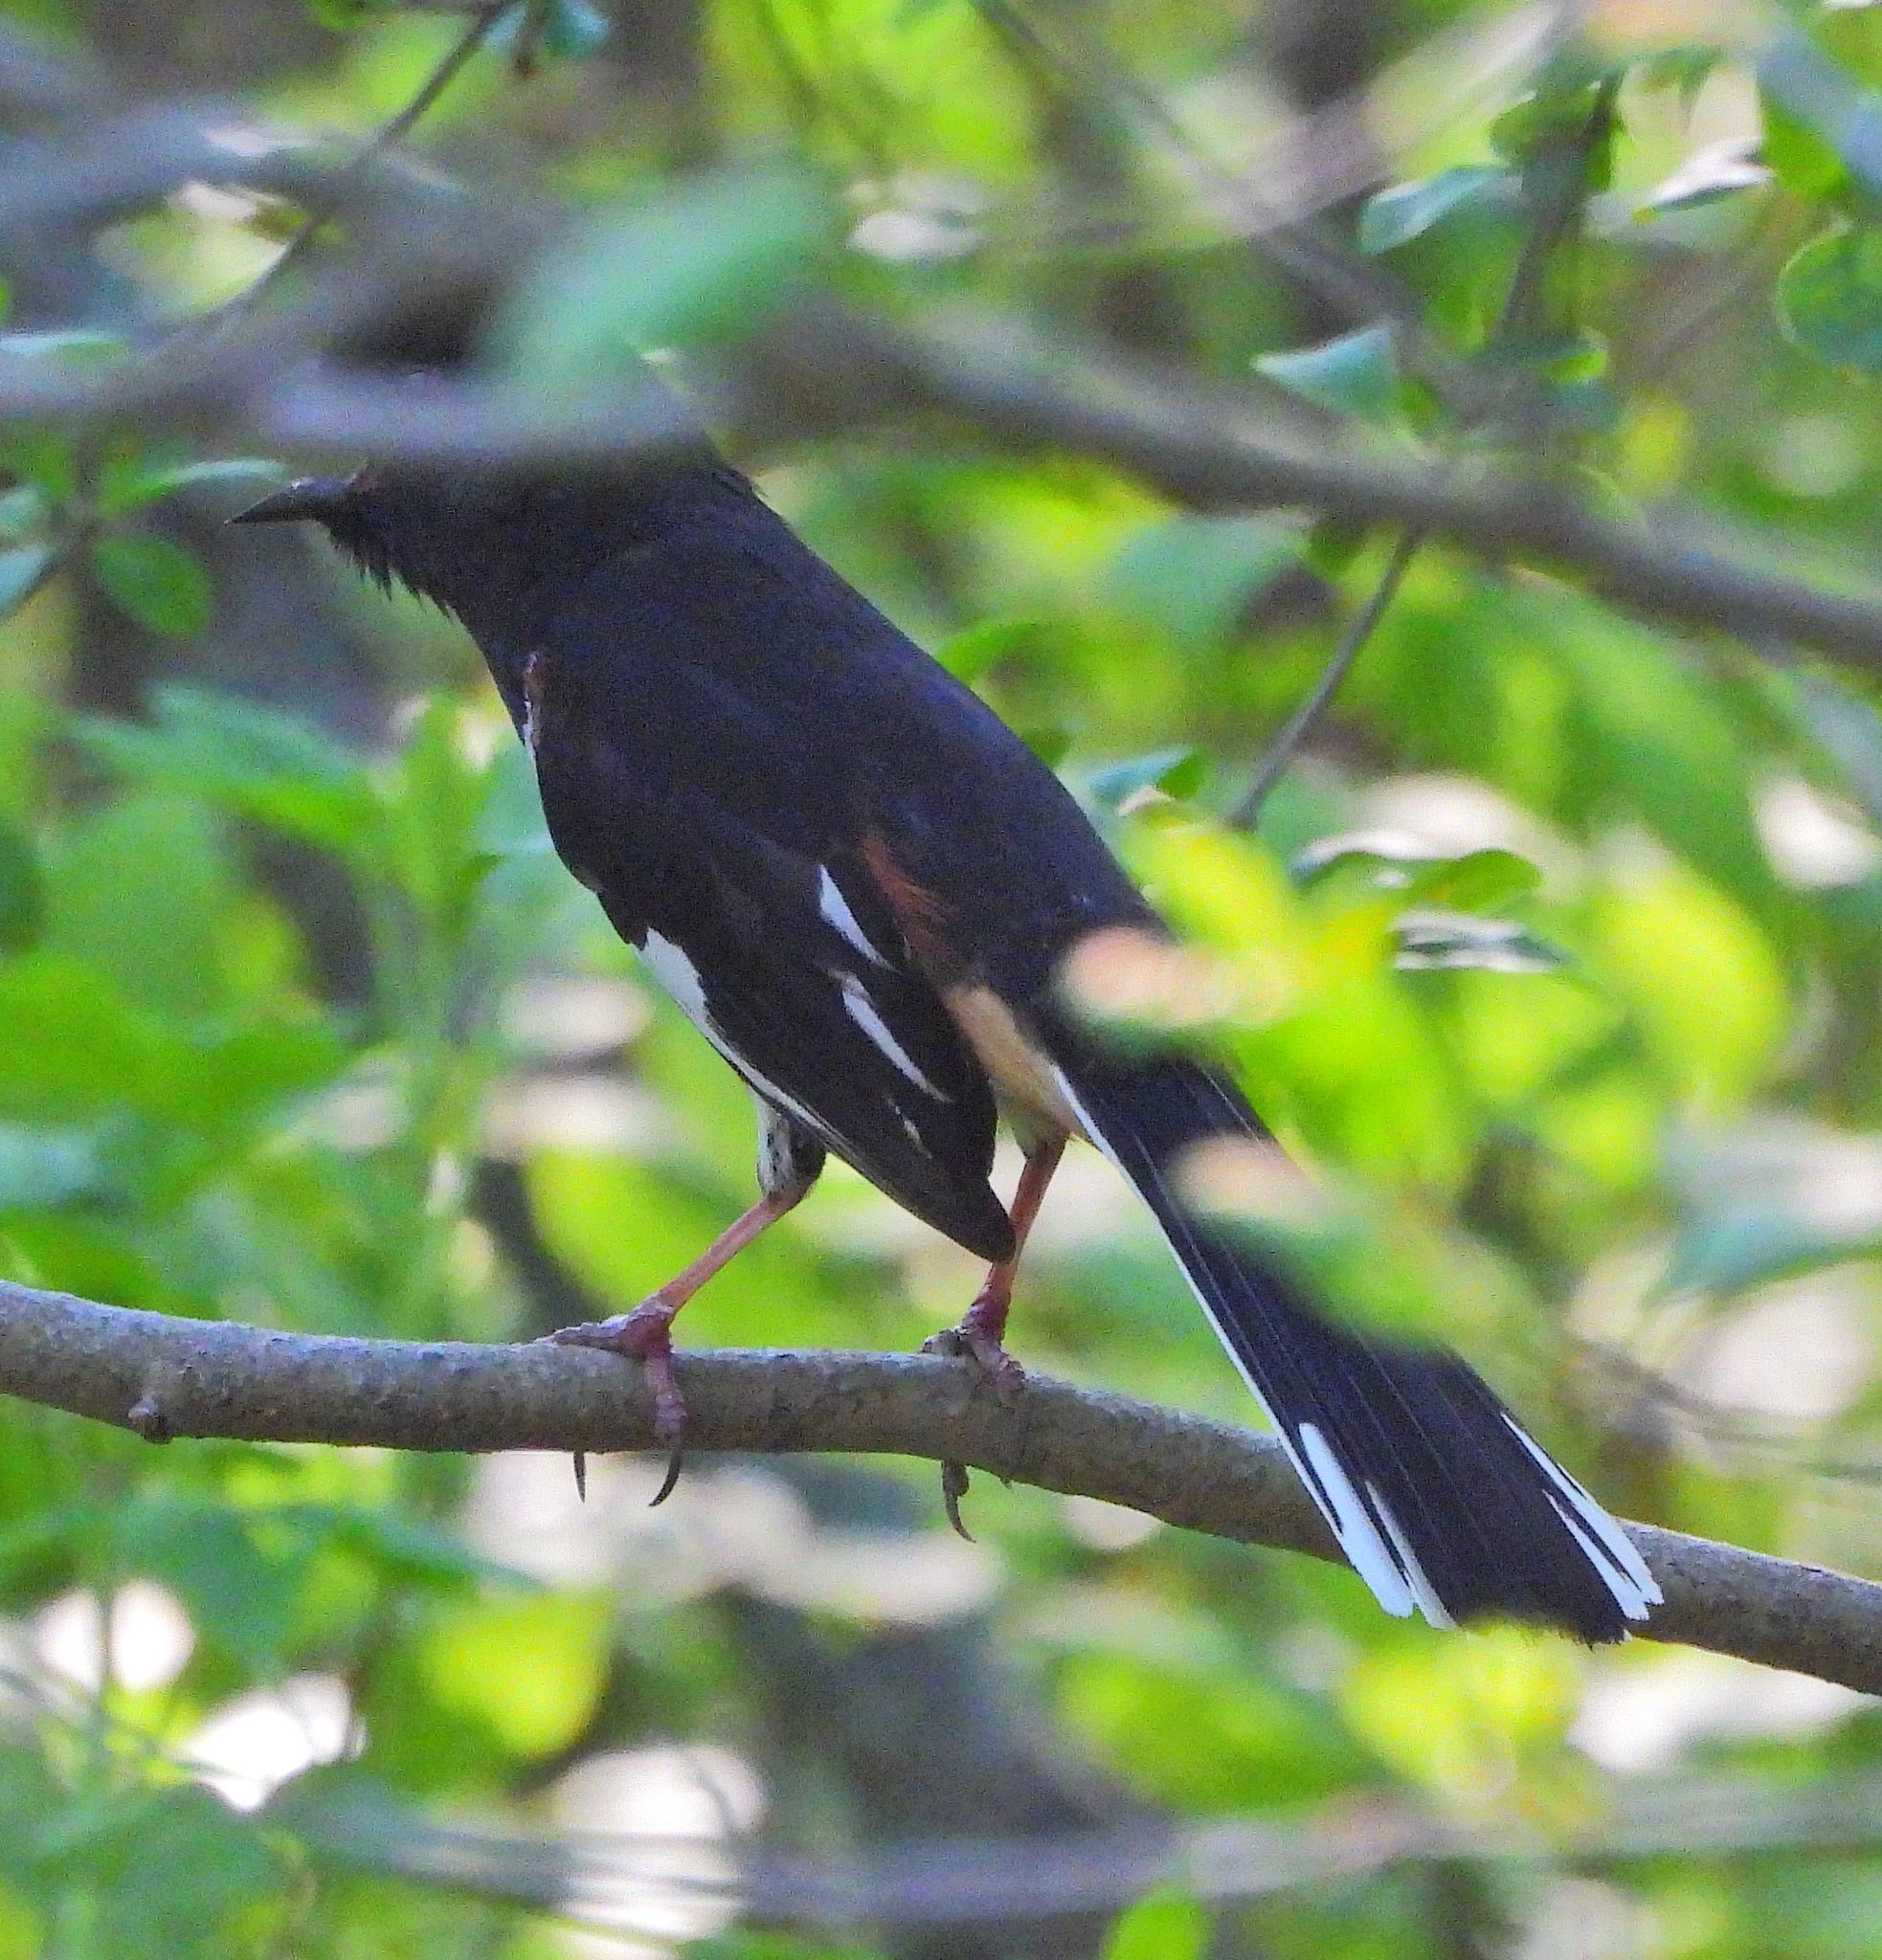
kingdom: Animalia
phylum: Chordata
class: Aves
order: Passeriformes
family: Passerellidae
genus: Pipilo
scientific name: Pipilo erythrophthalmus
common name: Eastern towhee
